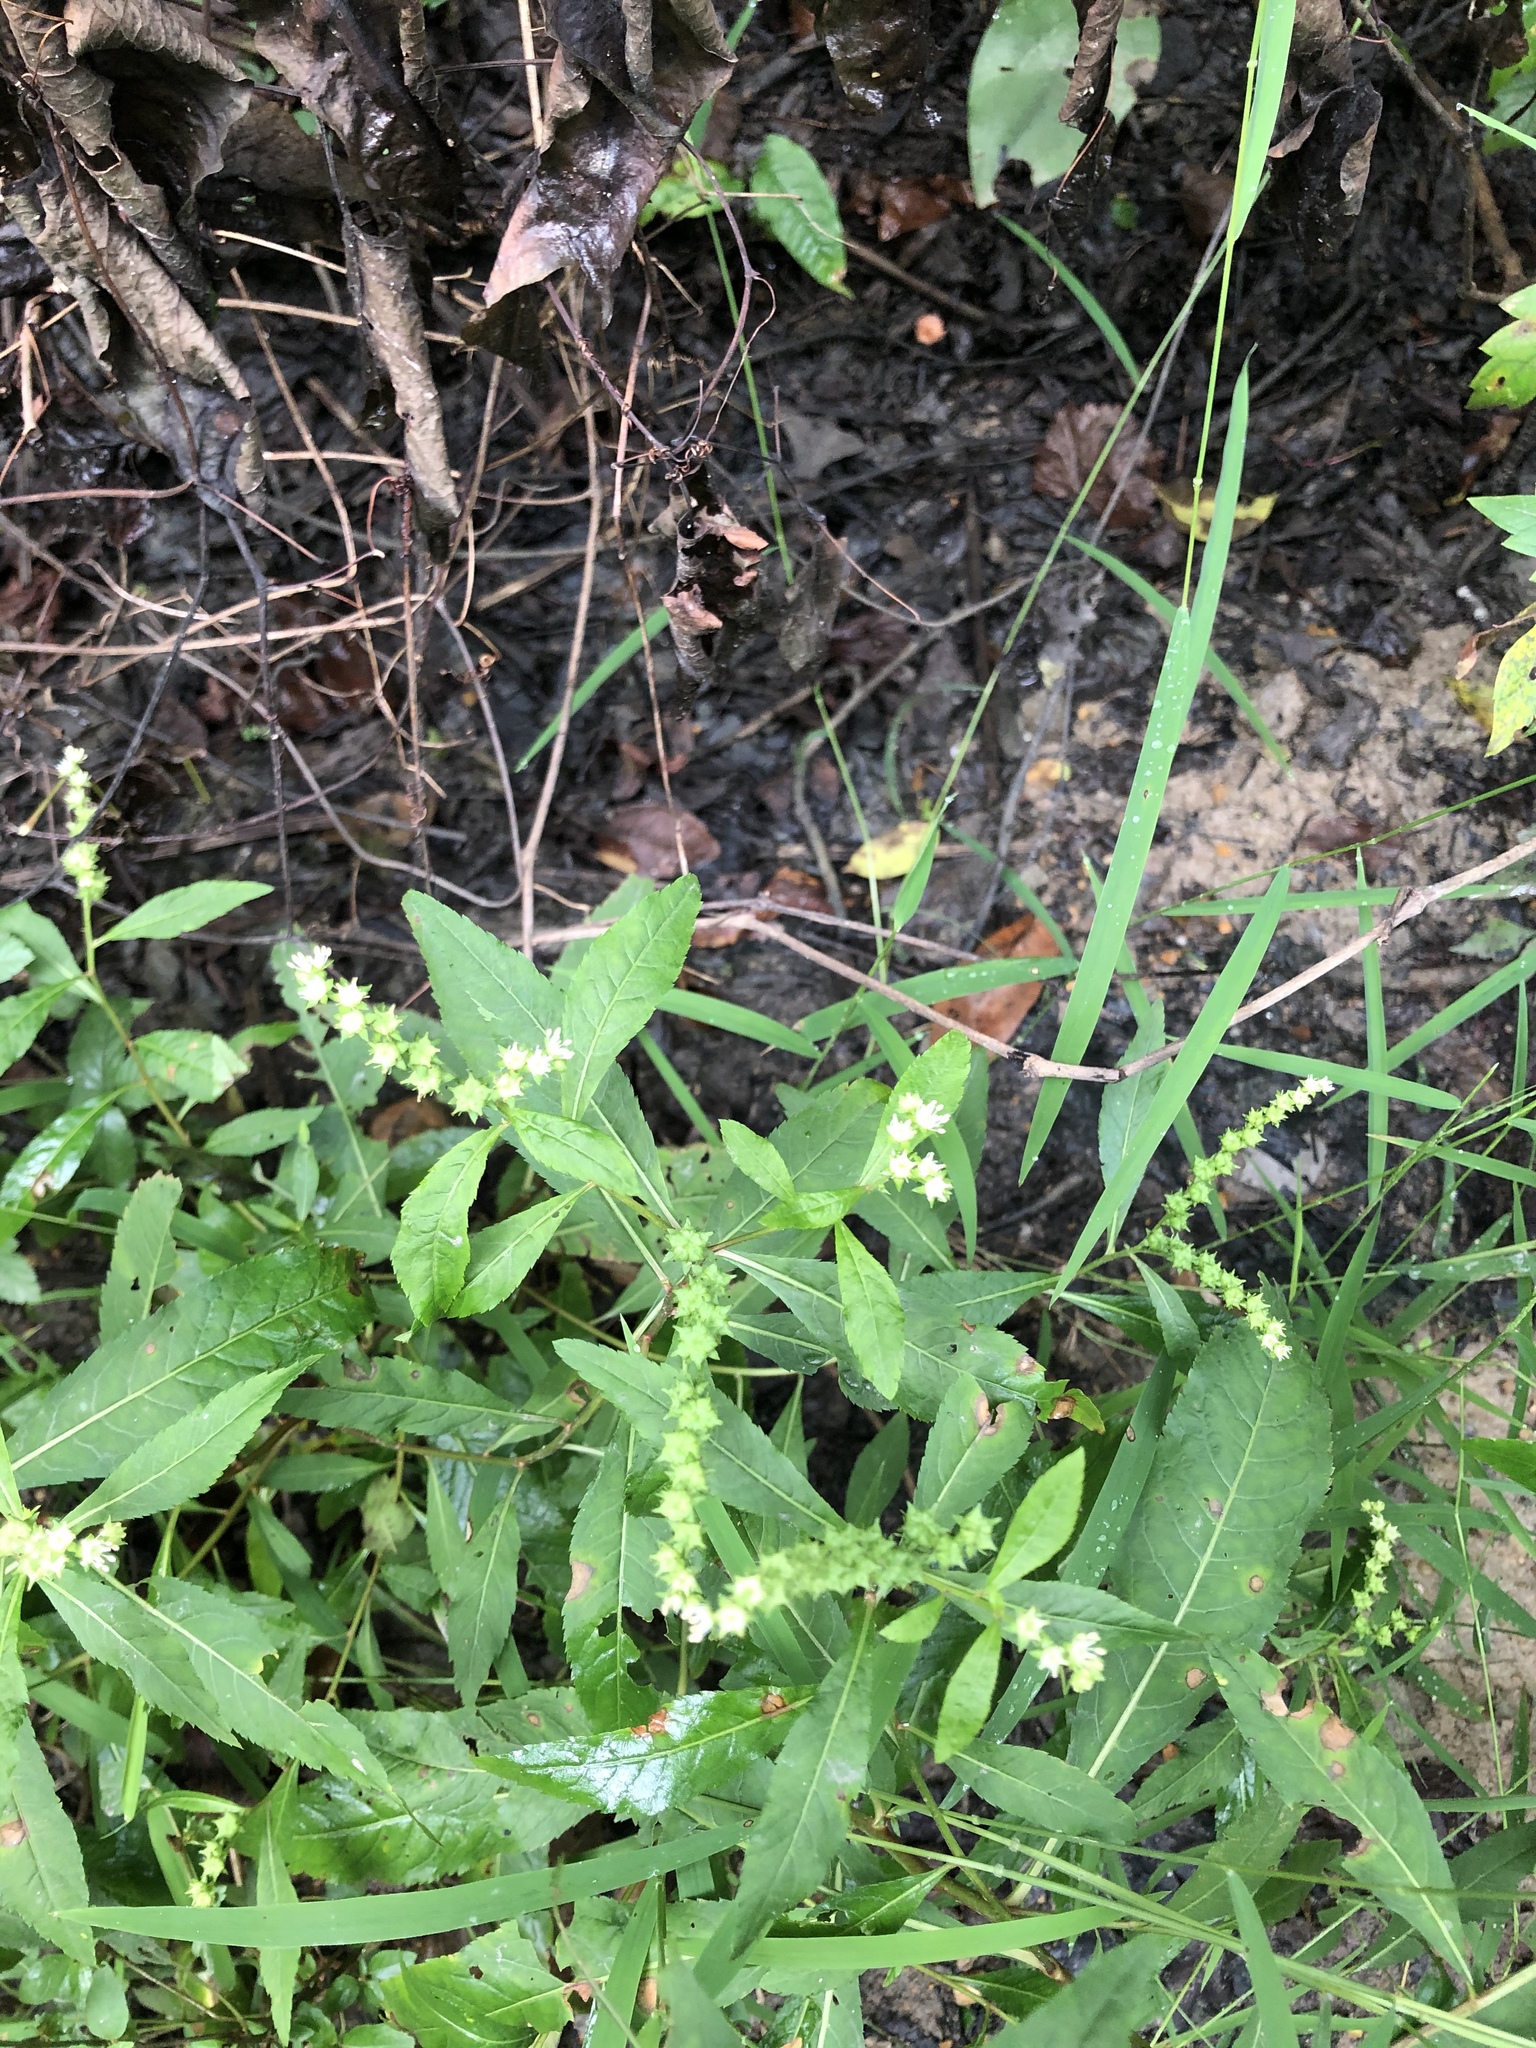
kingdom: Plantae
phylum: Tracheophyta
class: Magnoliopsida
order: Saxifragales
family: Penthoraceae
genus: Penthorum
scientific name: Penthorum sedoides
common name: Ditch stonecrop
